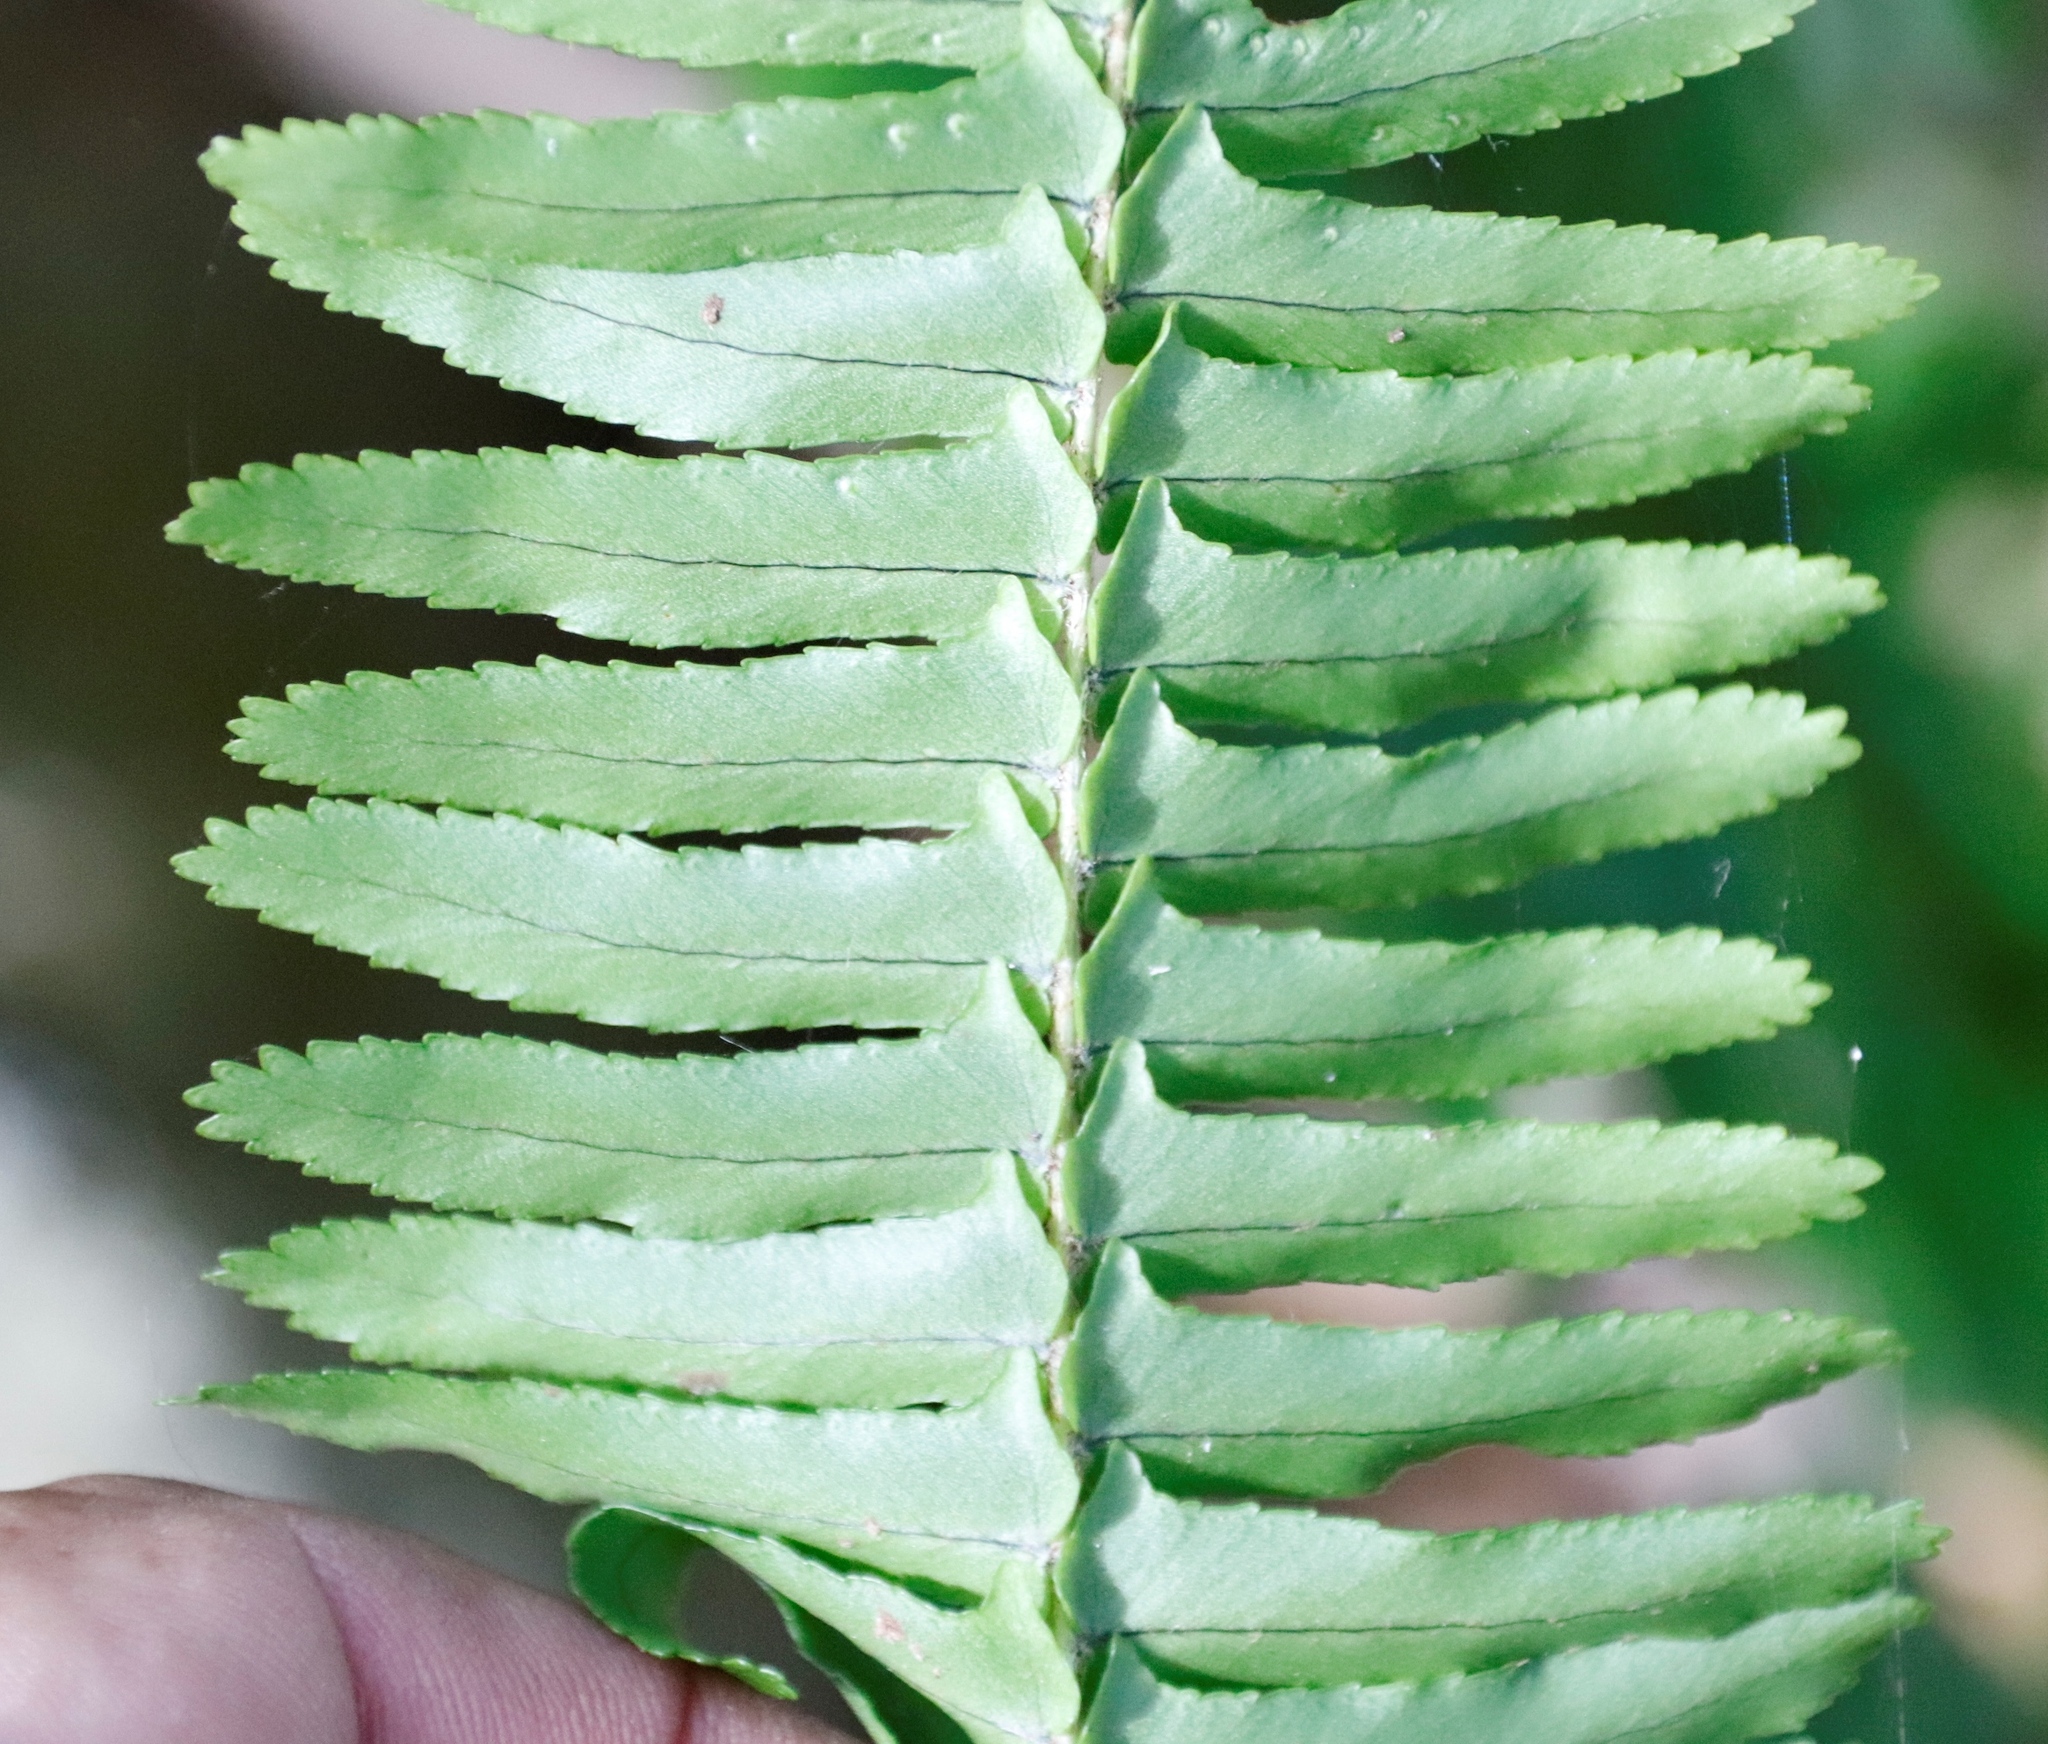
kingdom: Plantae
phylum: Tracheophyta
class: Polypodiopsida
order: Polypodiales
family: Nephrolepidaceae
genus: Nephrolepis
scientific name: Nephrolepis cordifolia
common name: Narrow swordfern
